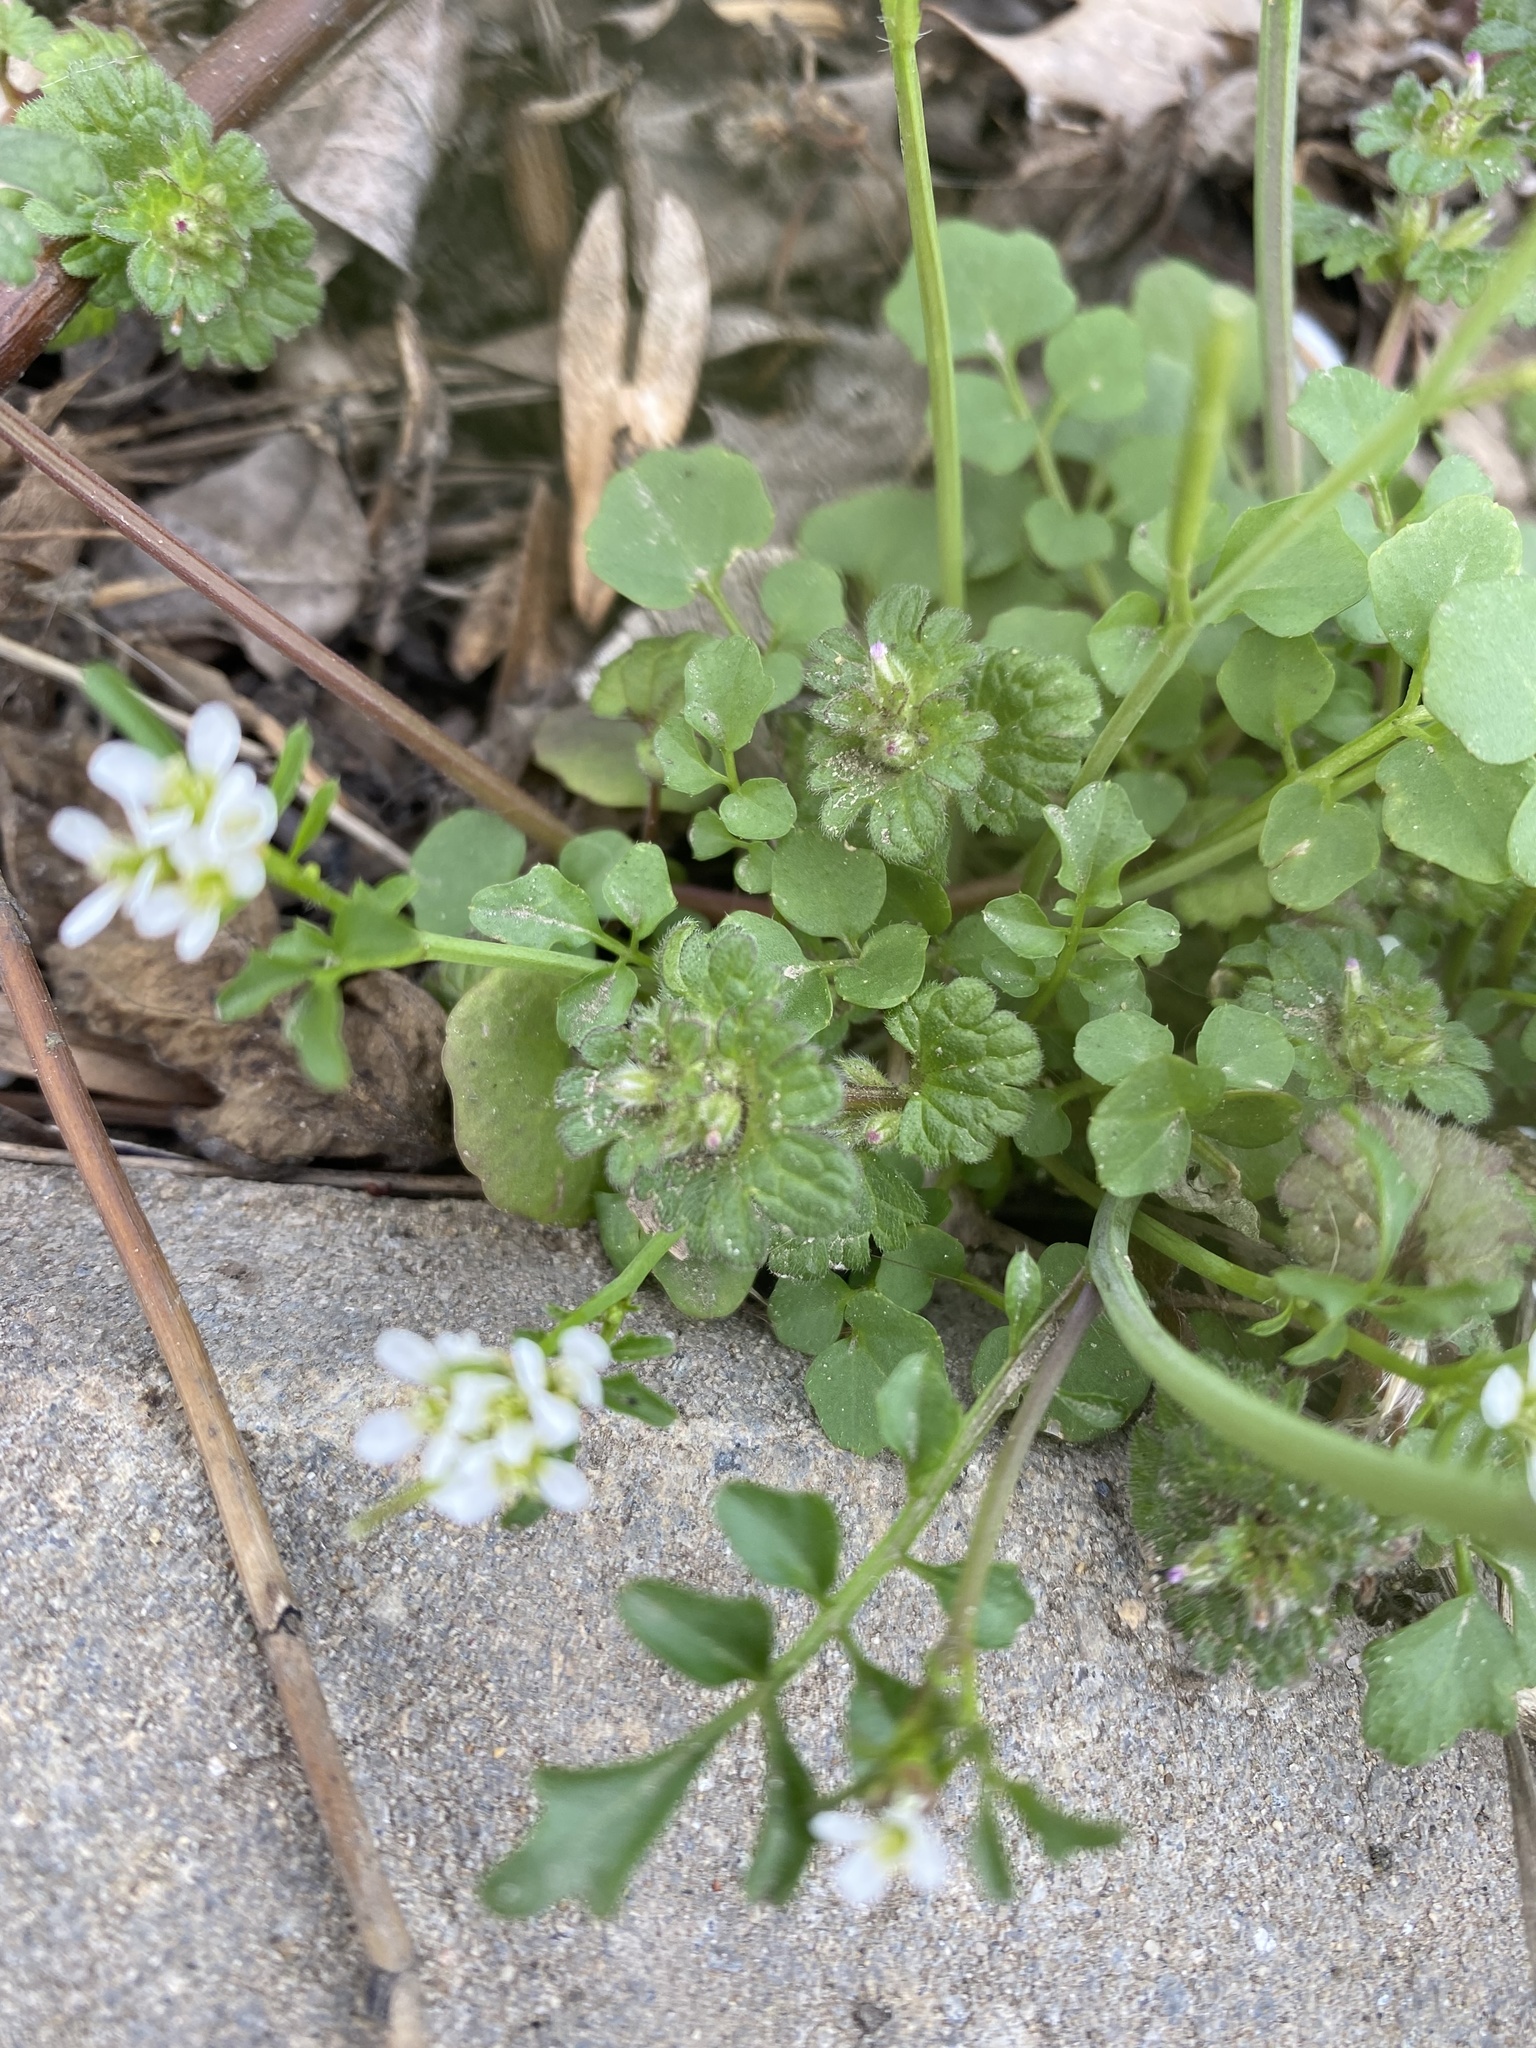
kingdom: Plantae
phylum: Tracheophyta
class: Magnoliopsida
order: Brassicales
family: Brassicaceae
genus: Cardamine
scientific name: Cardamine hirsuta
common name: Hairy bittercress
